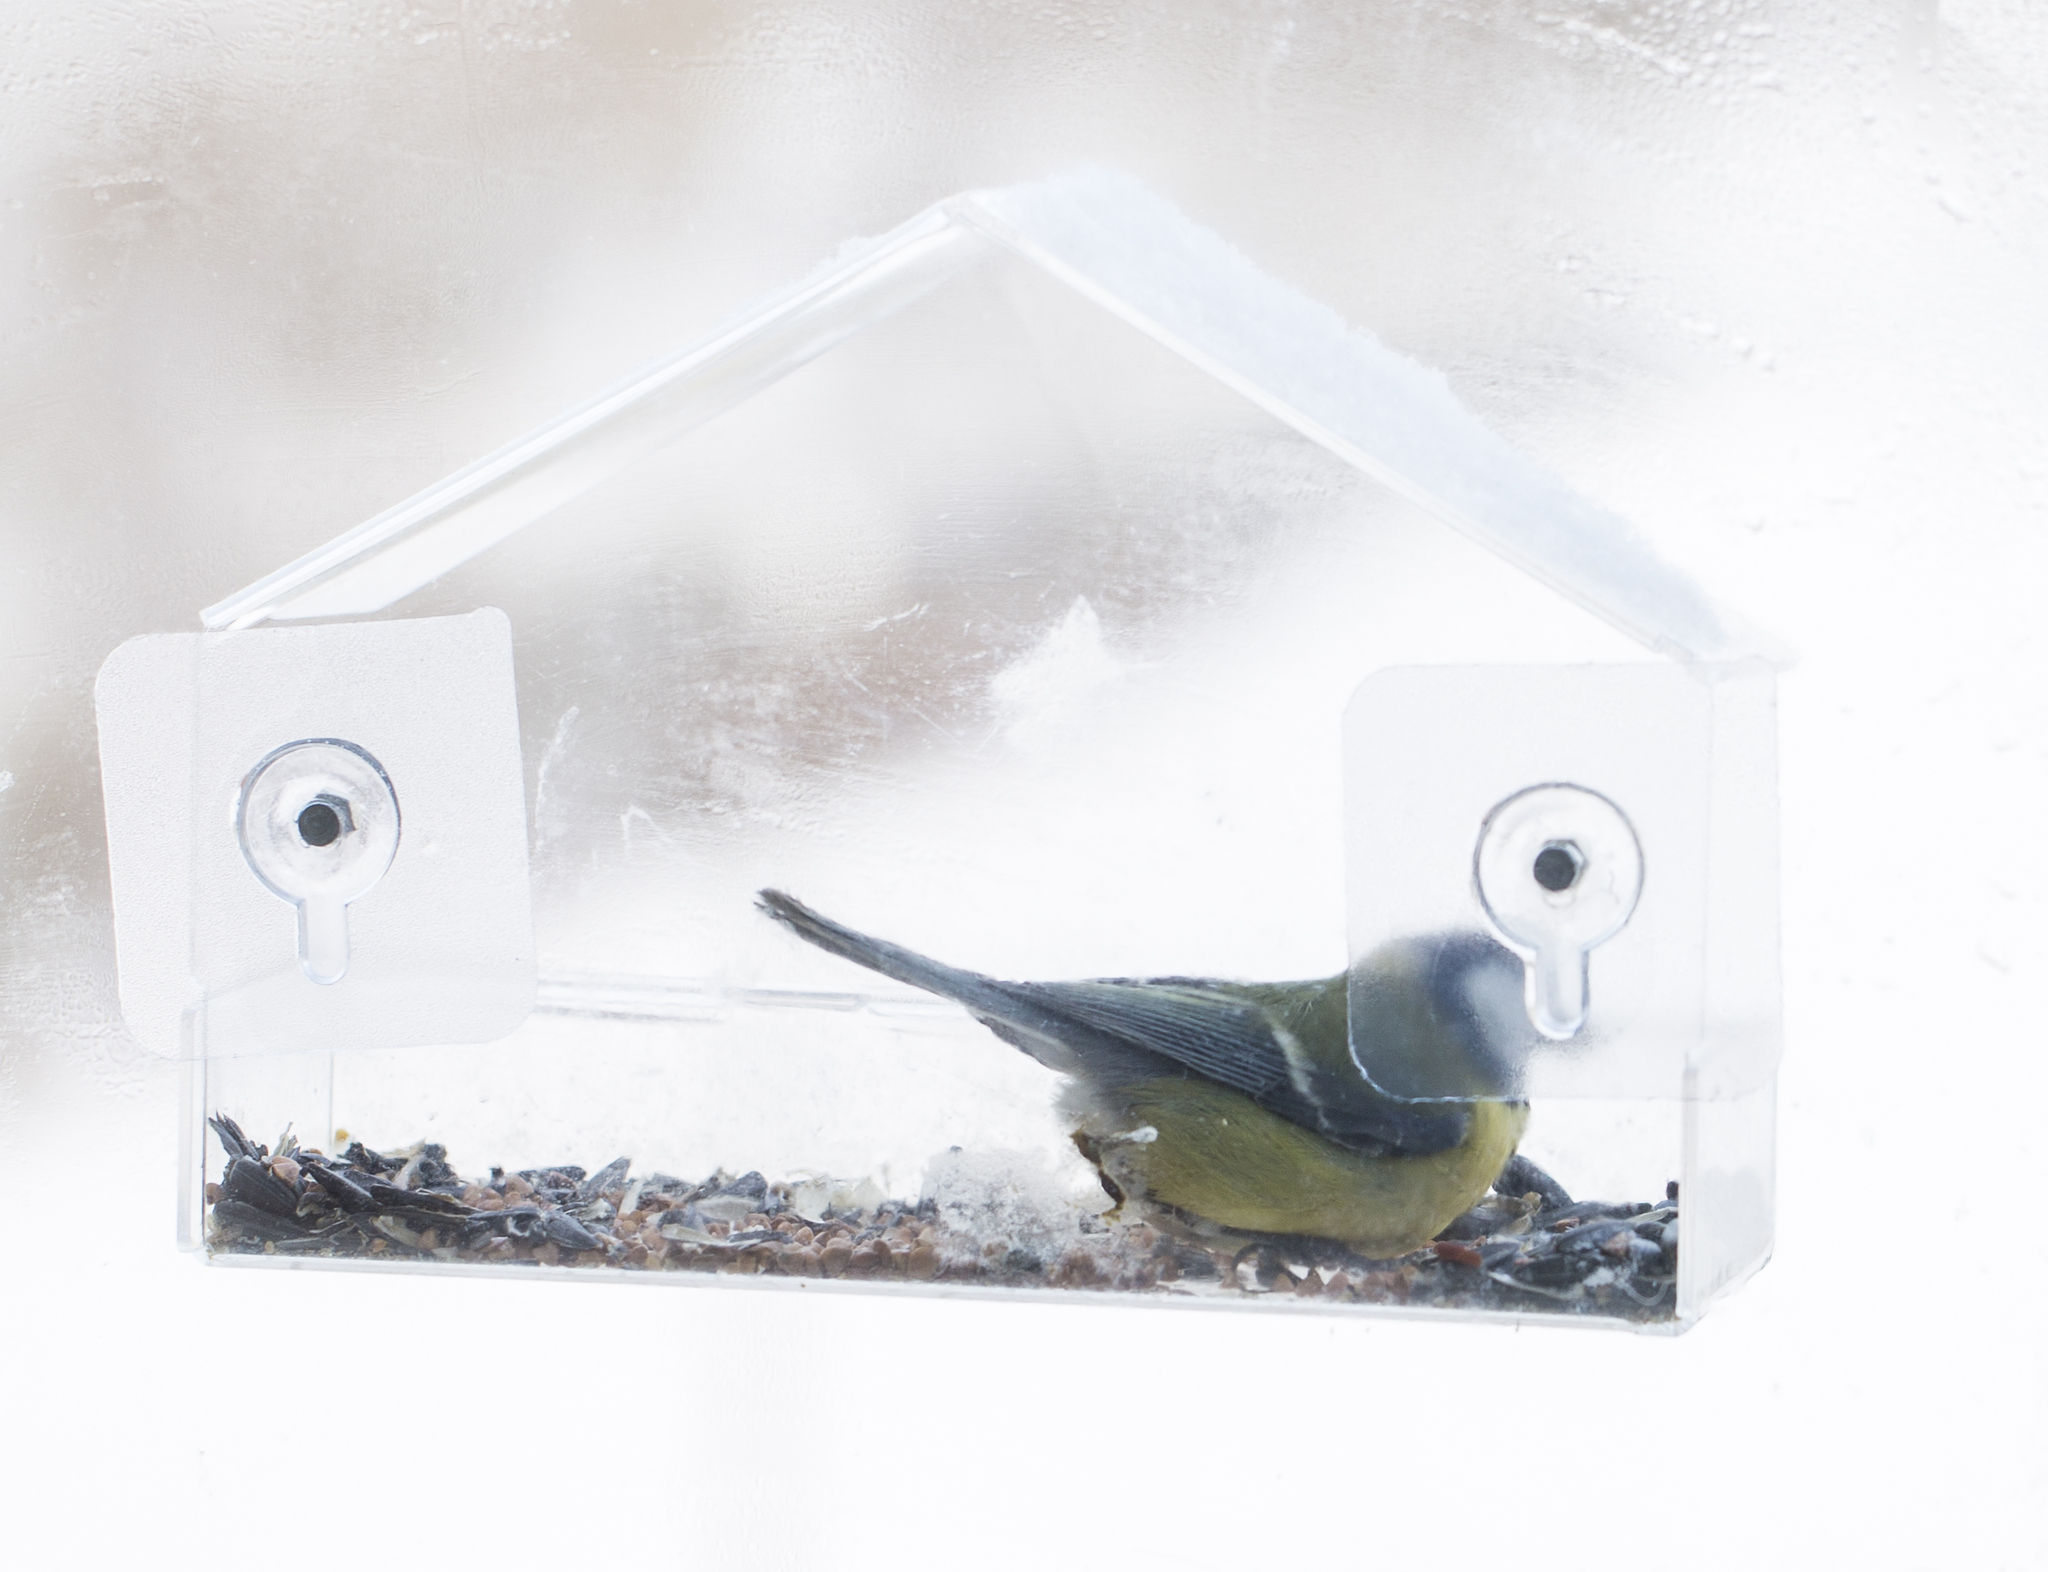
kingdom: Animalia
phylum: Chordata
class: Aves
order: Passeriformes
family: Paridae
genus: Cyanistes
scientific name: Cyanistes caeruleus
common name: Eurasian blue tit
